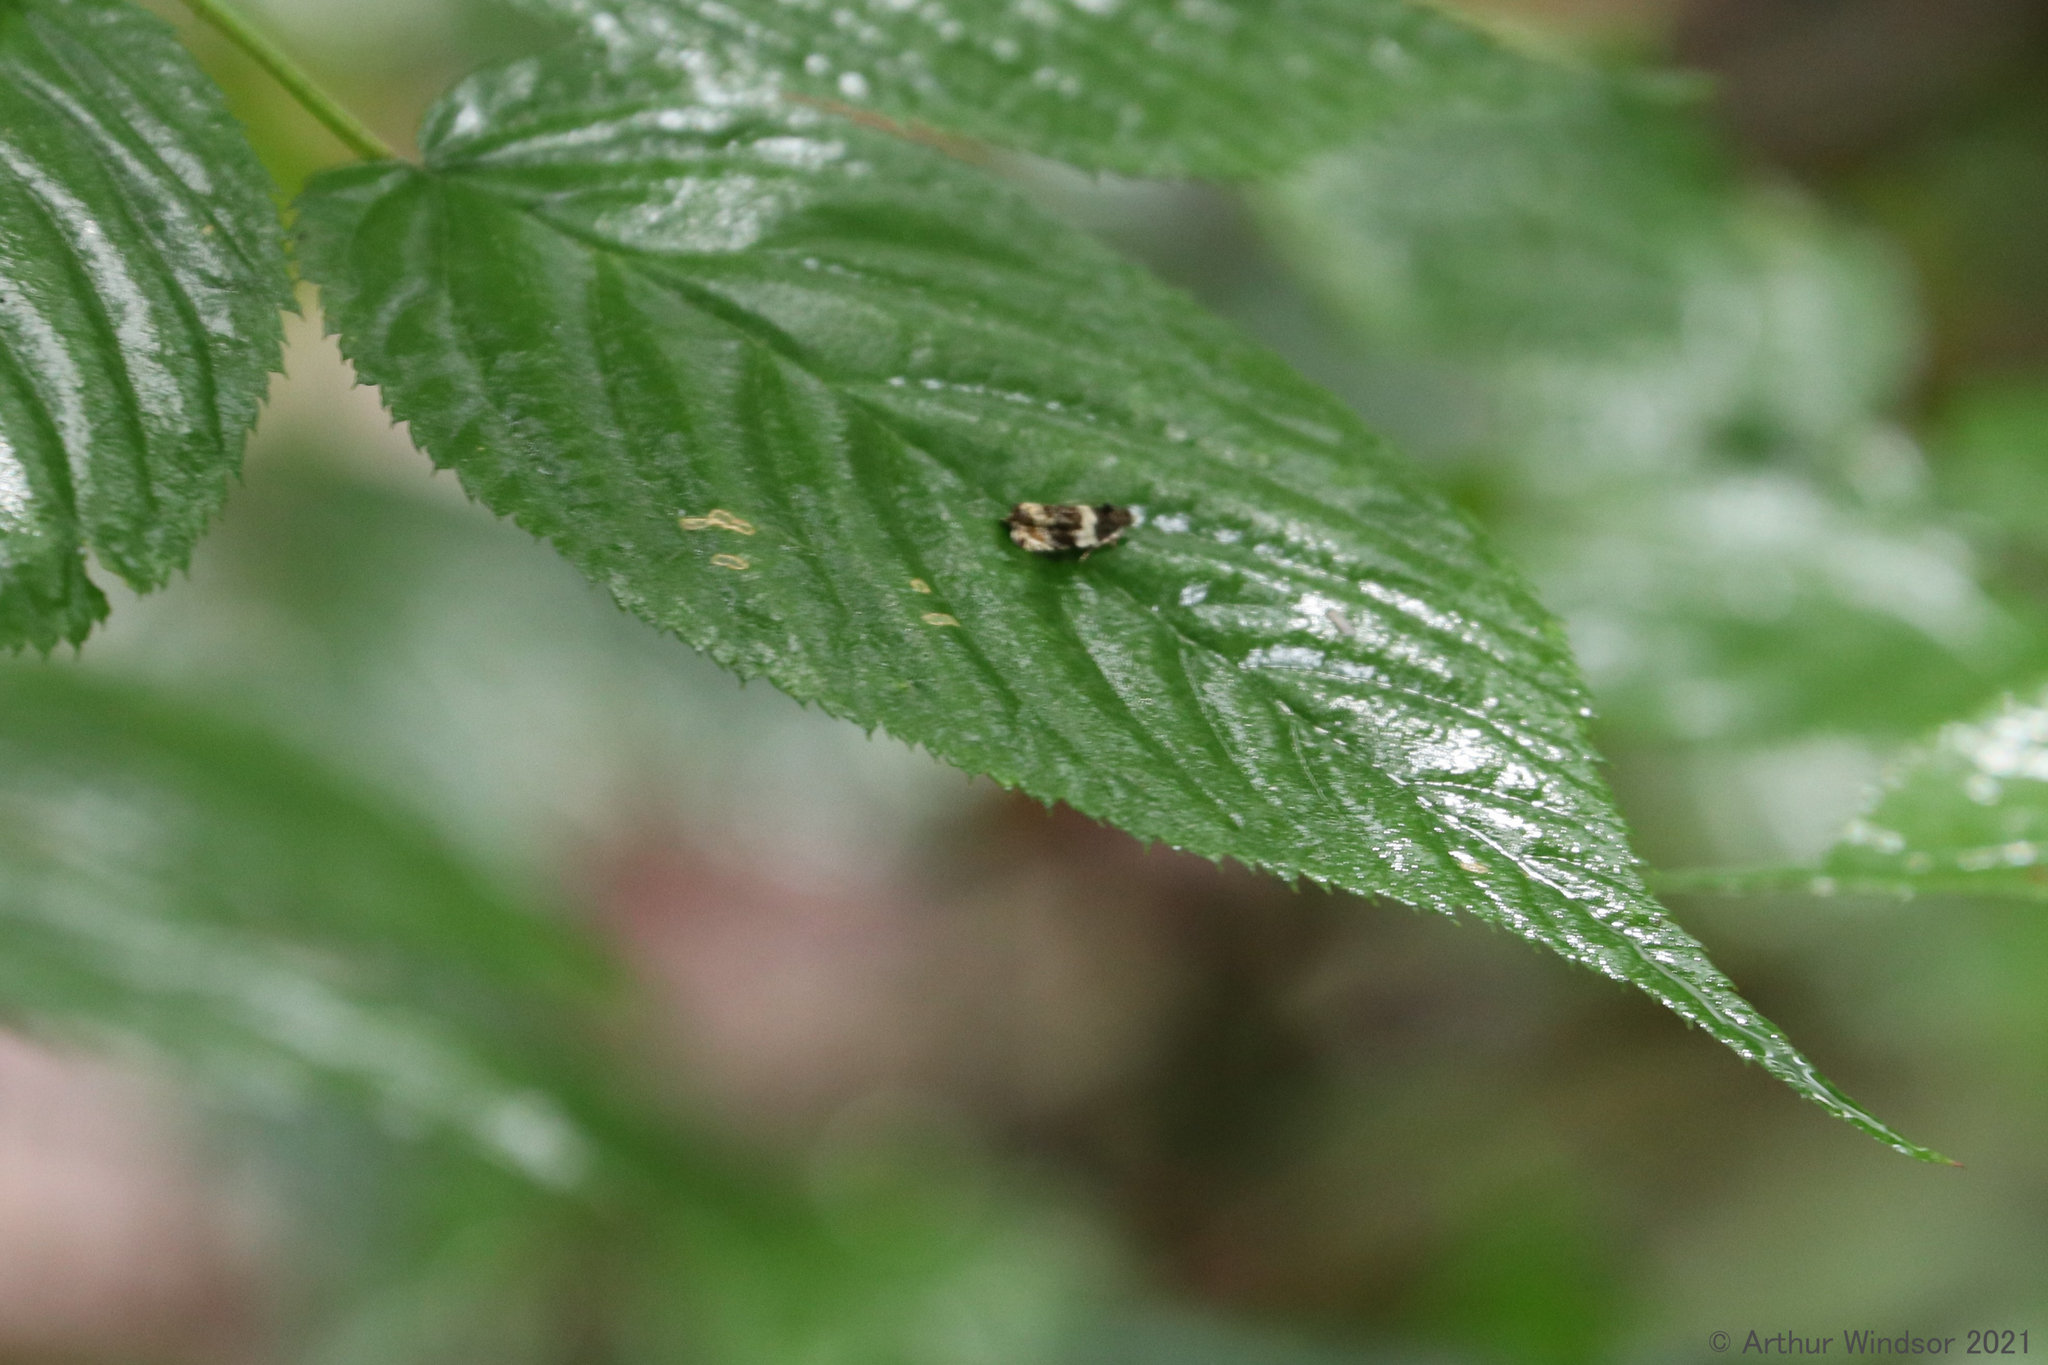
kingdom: Animalia
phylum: Arthropoda
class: Insecta
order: Lepidoptera
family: Tortricidae
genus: Olethreutes
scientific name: Olethreutes fasciatana
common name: Banded olethreutes moth
